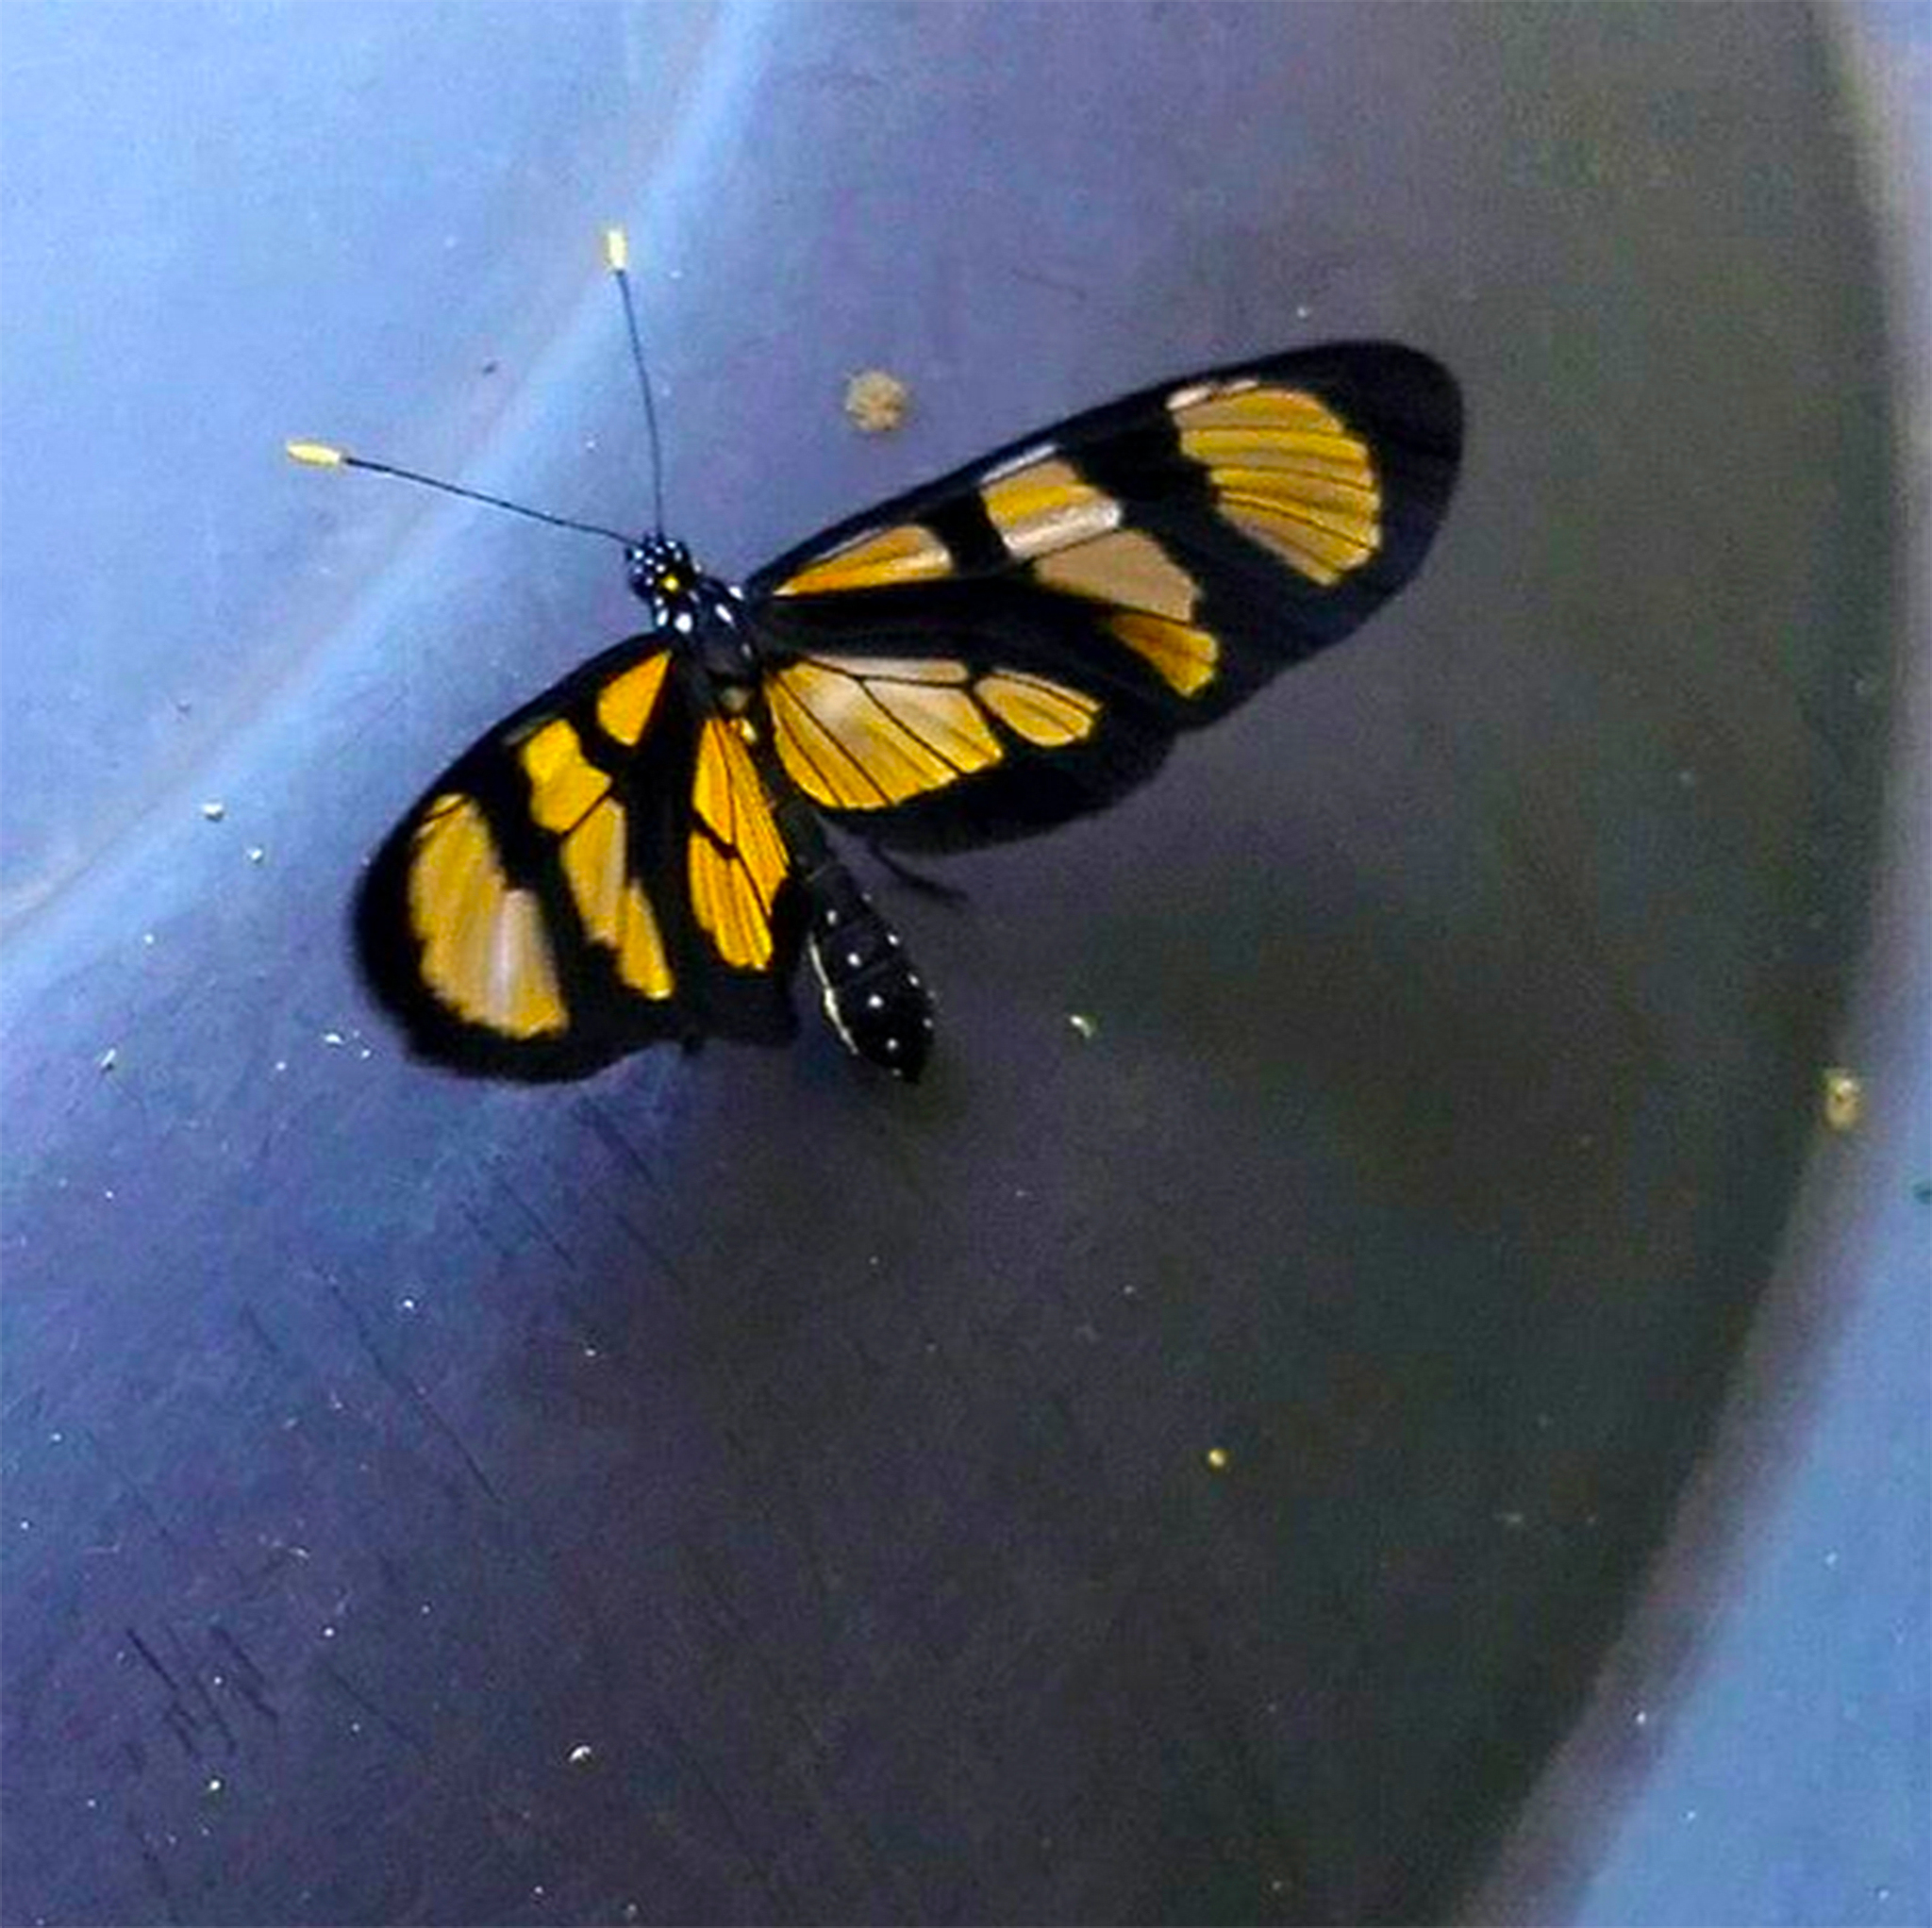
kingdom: Animalia
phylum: Arthropoda
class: Insecta
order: Lepidoptera
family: Nymphalidae
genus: Methona
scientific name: Methona themisto
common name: Themisto amberwing
